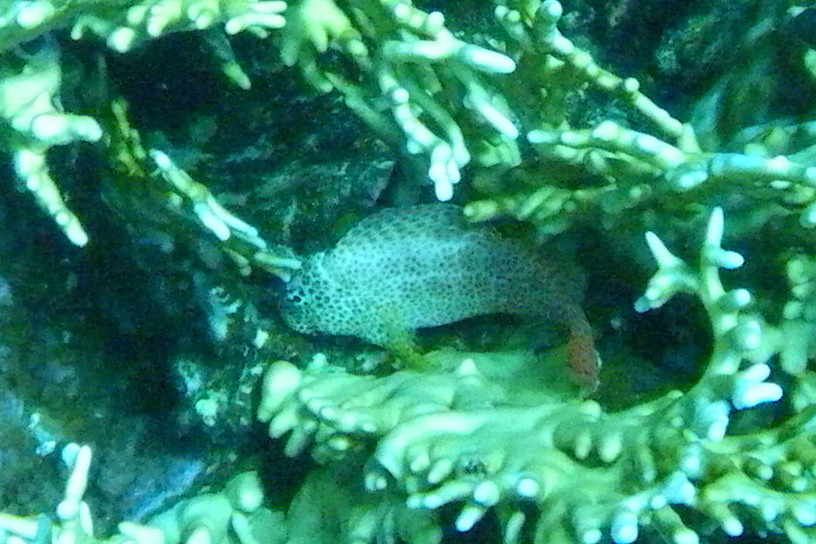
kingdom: Animalia
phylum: Chordata
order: Perciformes
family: Blenniidae
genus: Exallias
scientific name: Exallias brevis
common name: Leopard blenny
